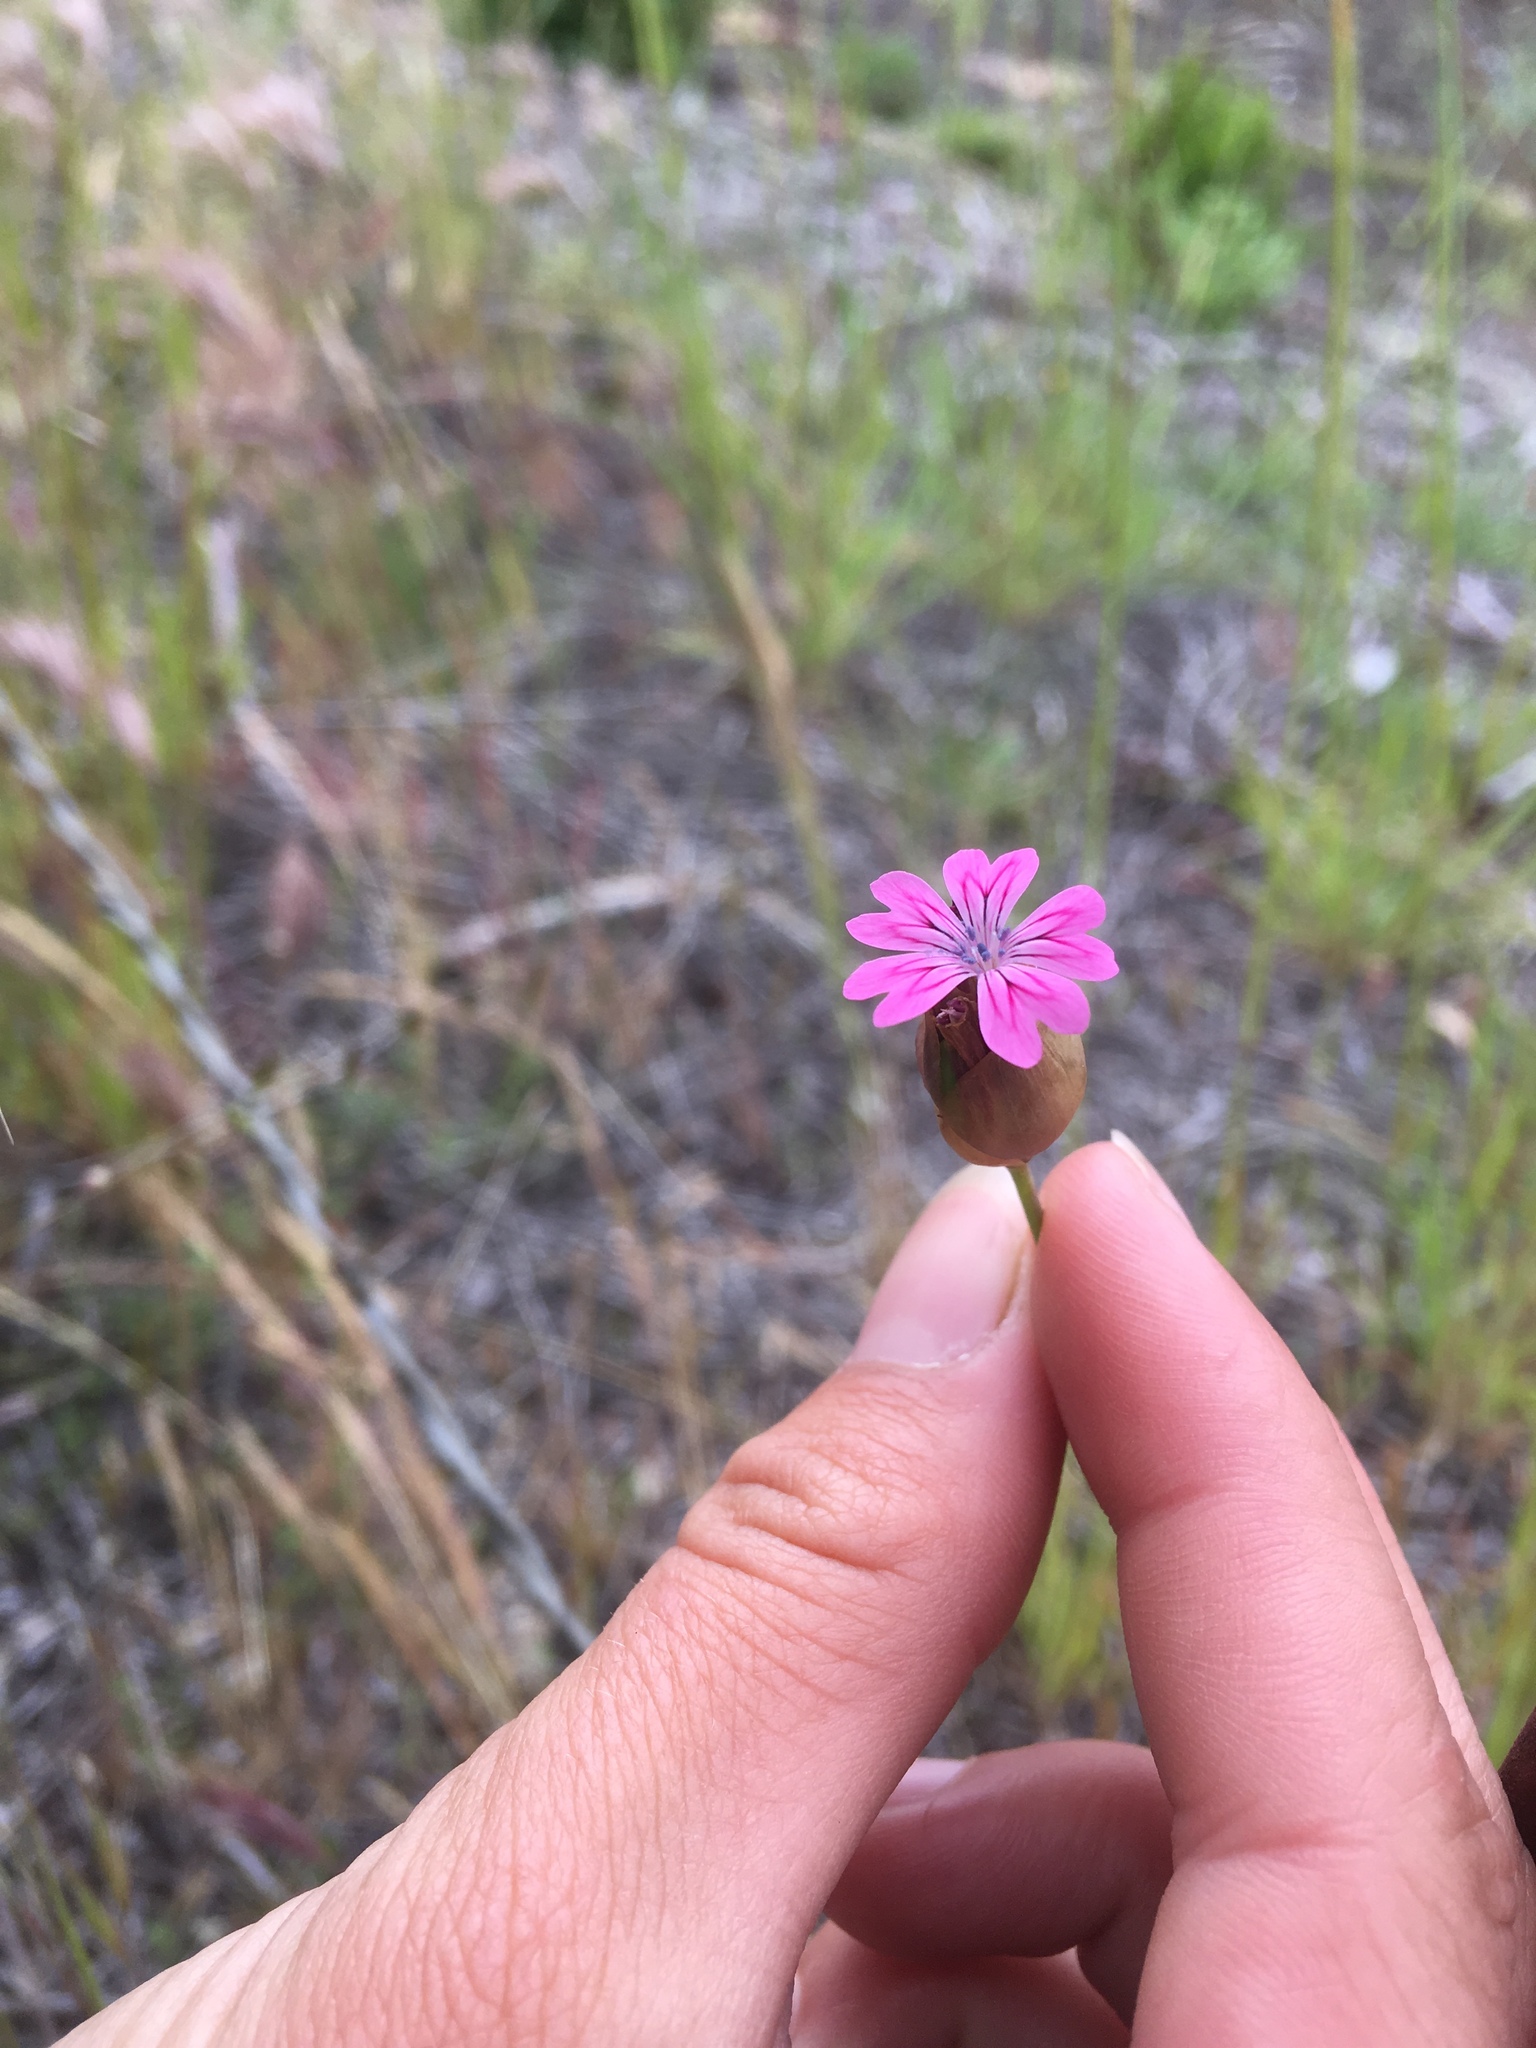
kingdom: Plantae
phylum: Tracheophyta
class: Magnoliopsida
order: Caryophyllales
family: Caryophyllaceae
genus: Petrorhagia
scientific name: Petrorhagia dubia
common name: Hairypink
